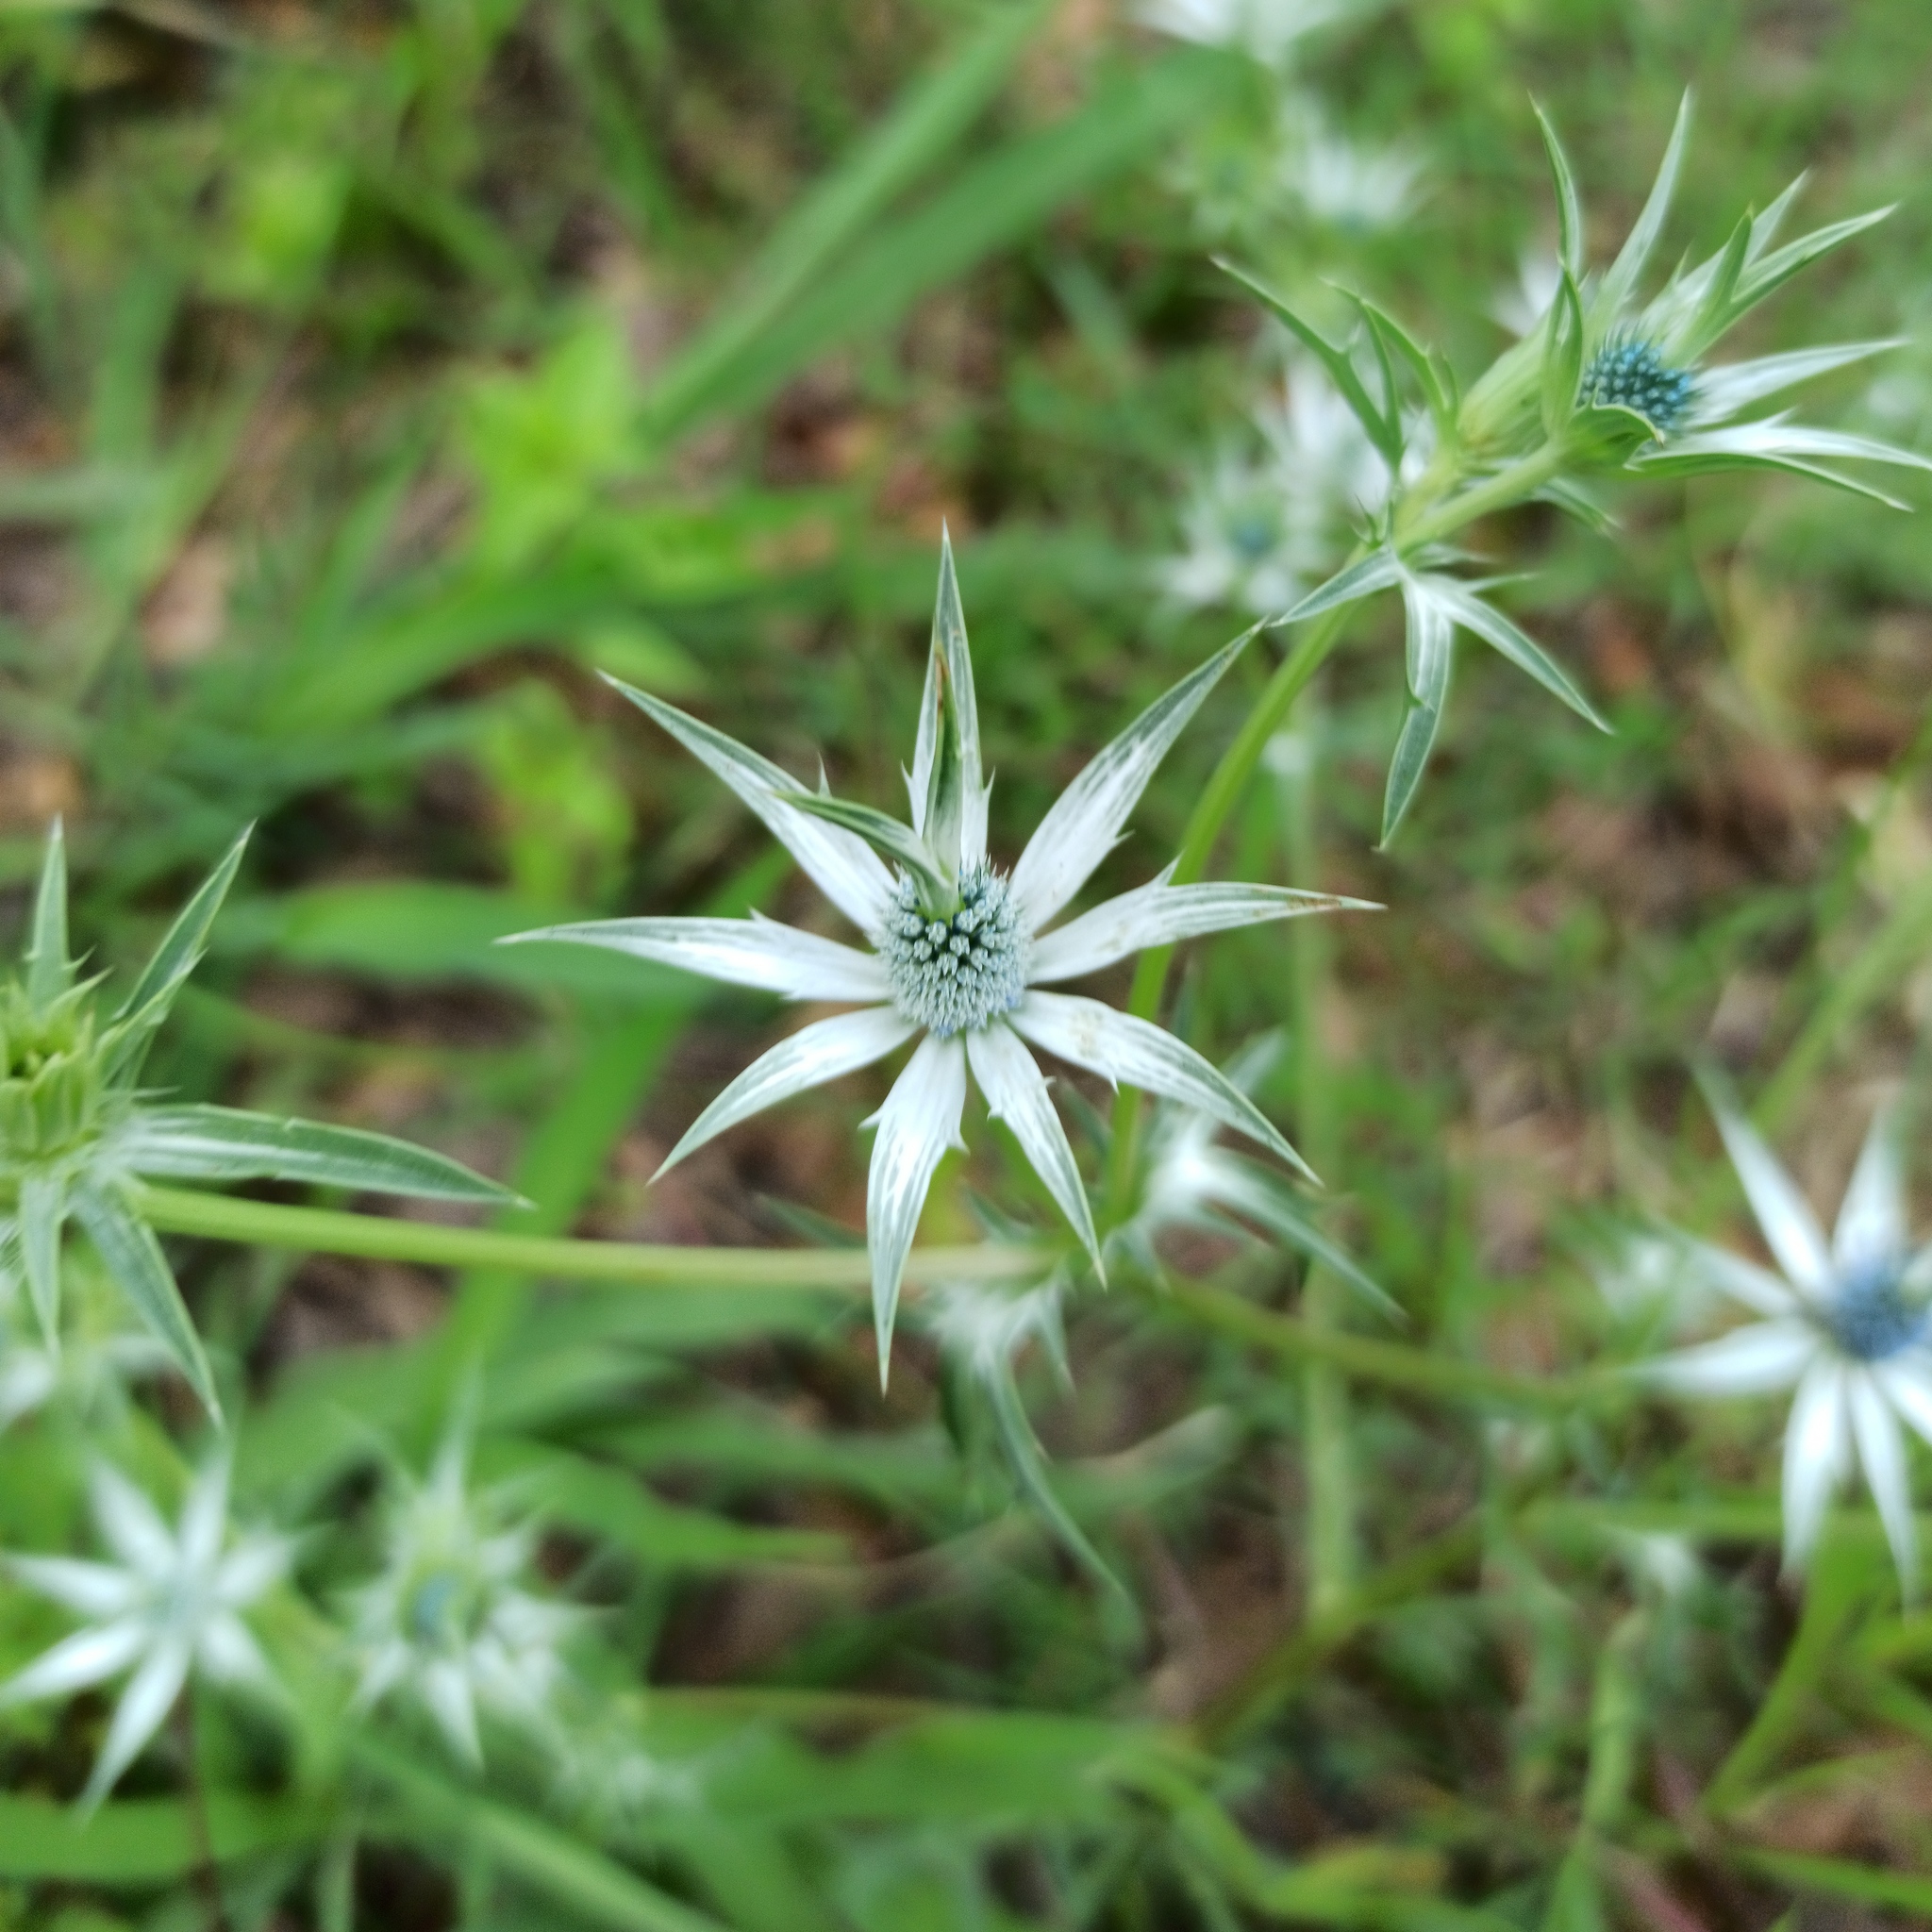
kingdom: Plantae
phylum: Tracheophyta
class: Magnoliopsida
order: Apiales
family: Apiaceae
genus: Eryngium
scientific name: Eryngium heterophyllum
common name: Mexican thistle
